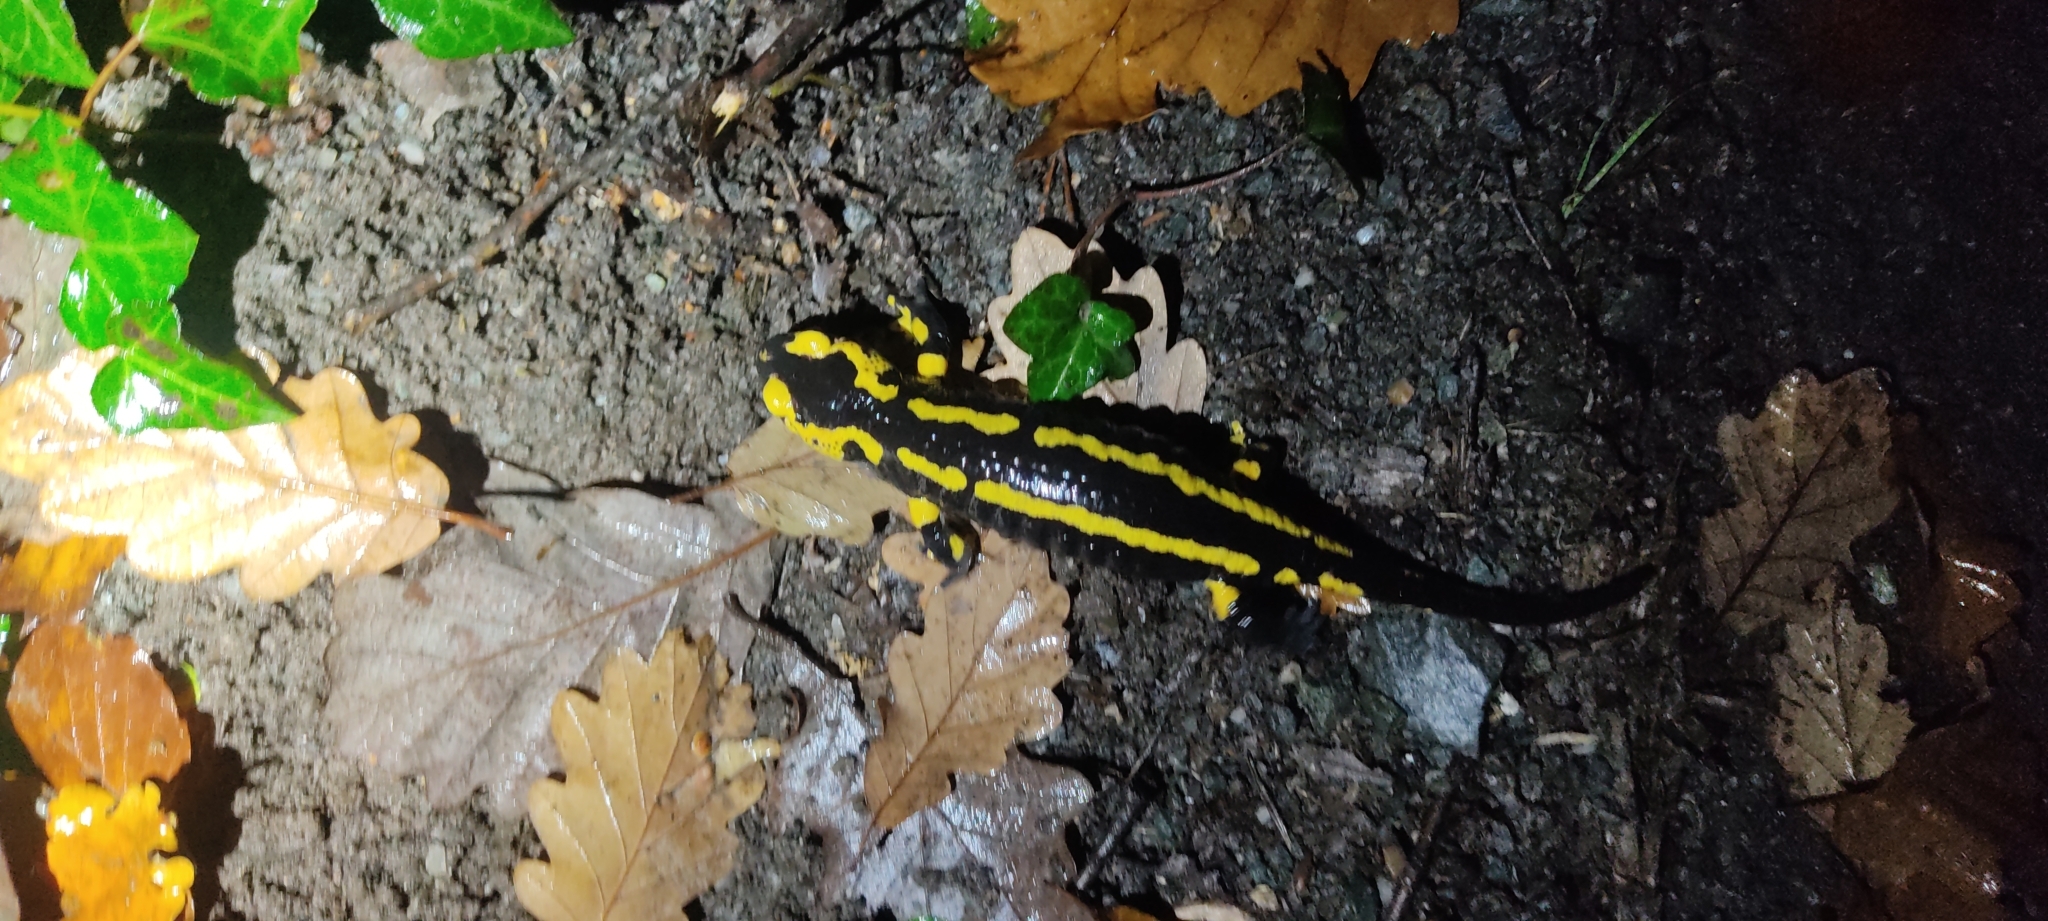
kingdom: Animalia
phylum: Chordata
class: Amphibia
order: Caudata
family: Salamandridae
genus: Salamandra
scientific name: Salamandra salamandra
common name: Fire salamander
